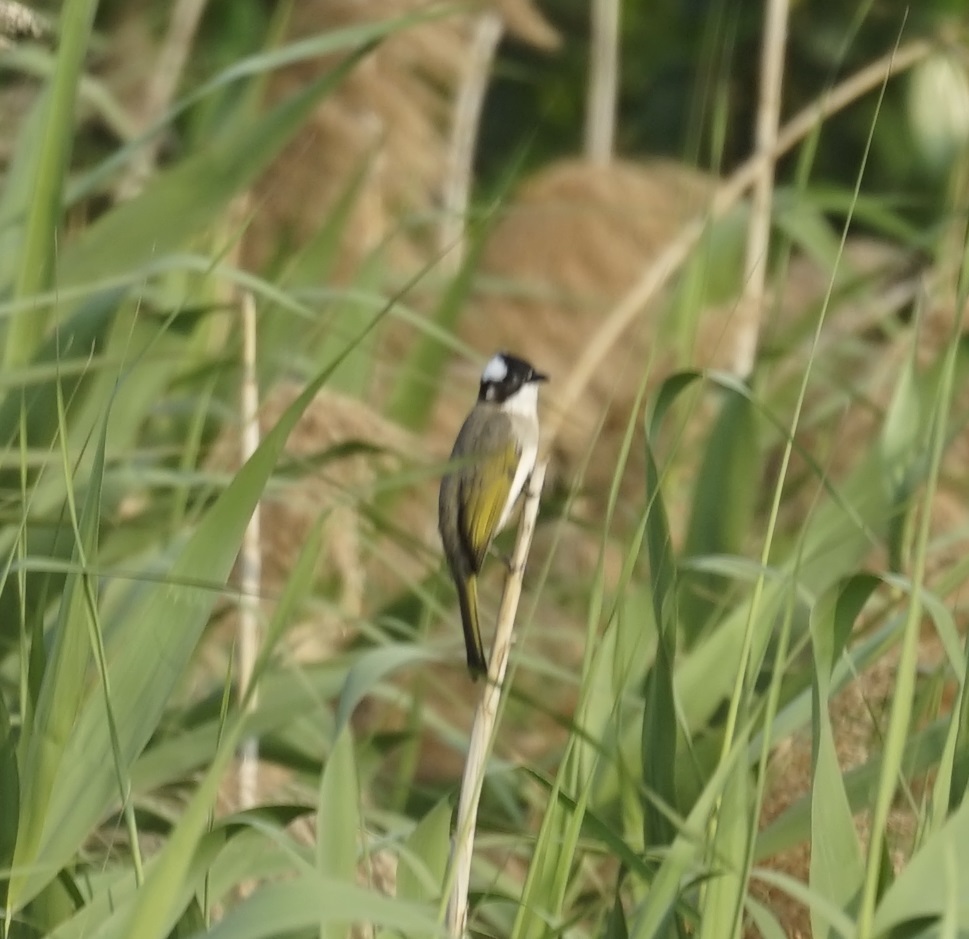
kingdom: Animalia
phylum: Chordata
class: Aves
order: Passeriformes
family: Pycnonotidae
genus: Pycnonotus
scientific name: Pycnonotus sinensis
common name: Light-vented bulbul
